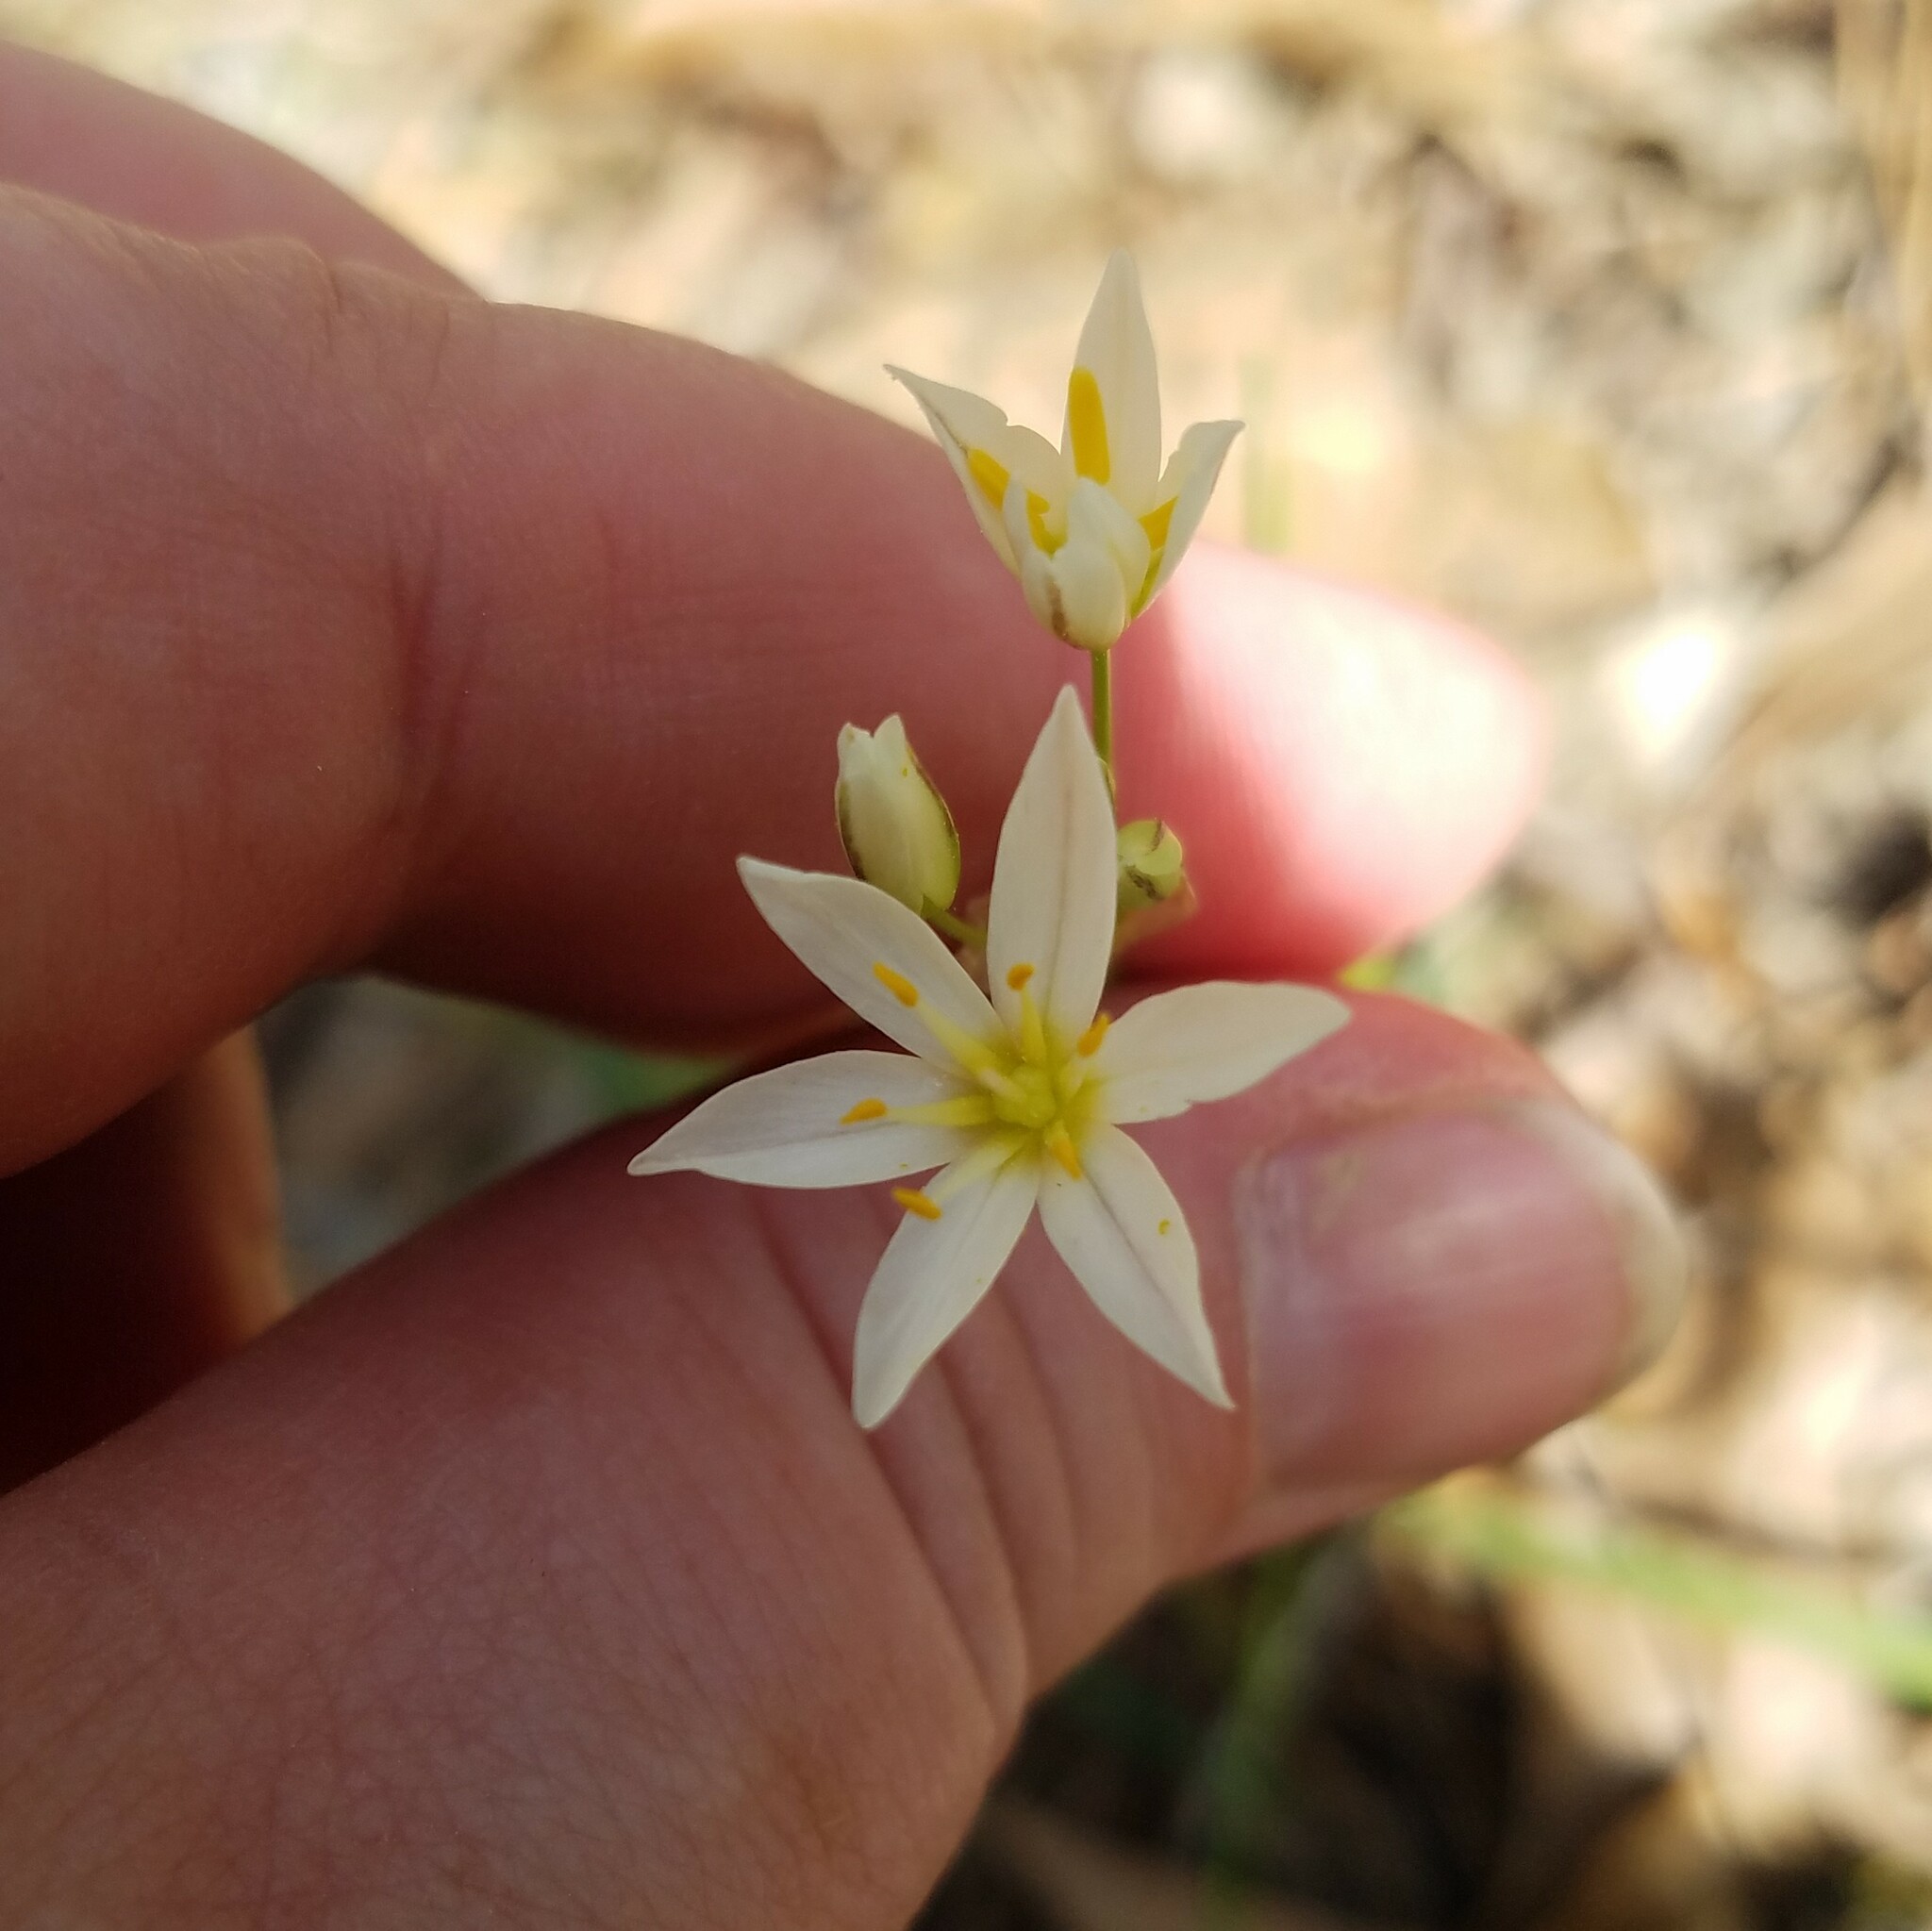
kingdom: Plantae
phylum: Tracheophyta
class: Liliopsida
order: Asparagales
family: Amaryllidaceae
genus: Nothoscordum
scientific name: Nothoscordum bivalve
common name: Crow-poison
